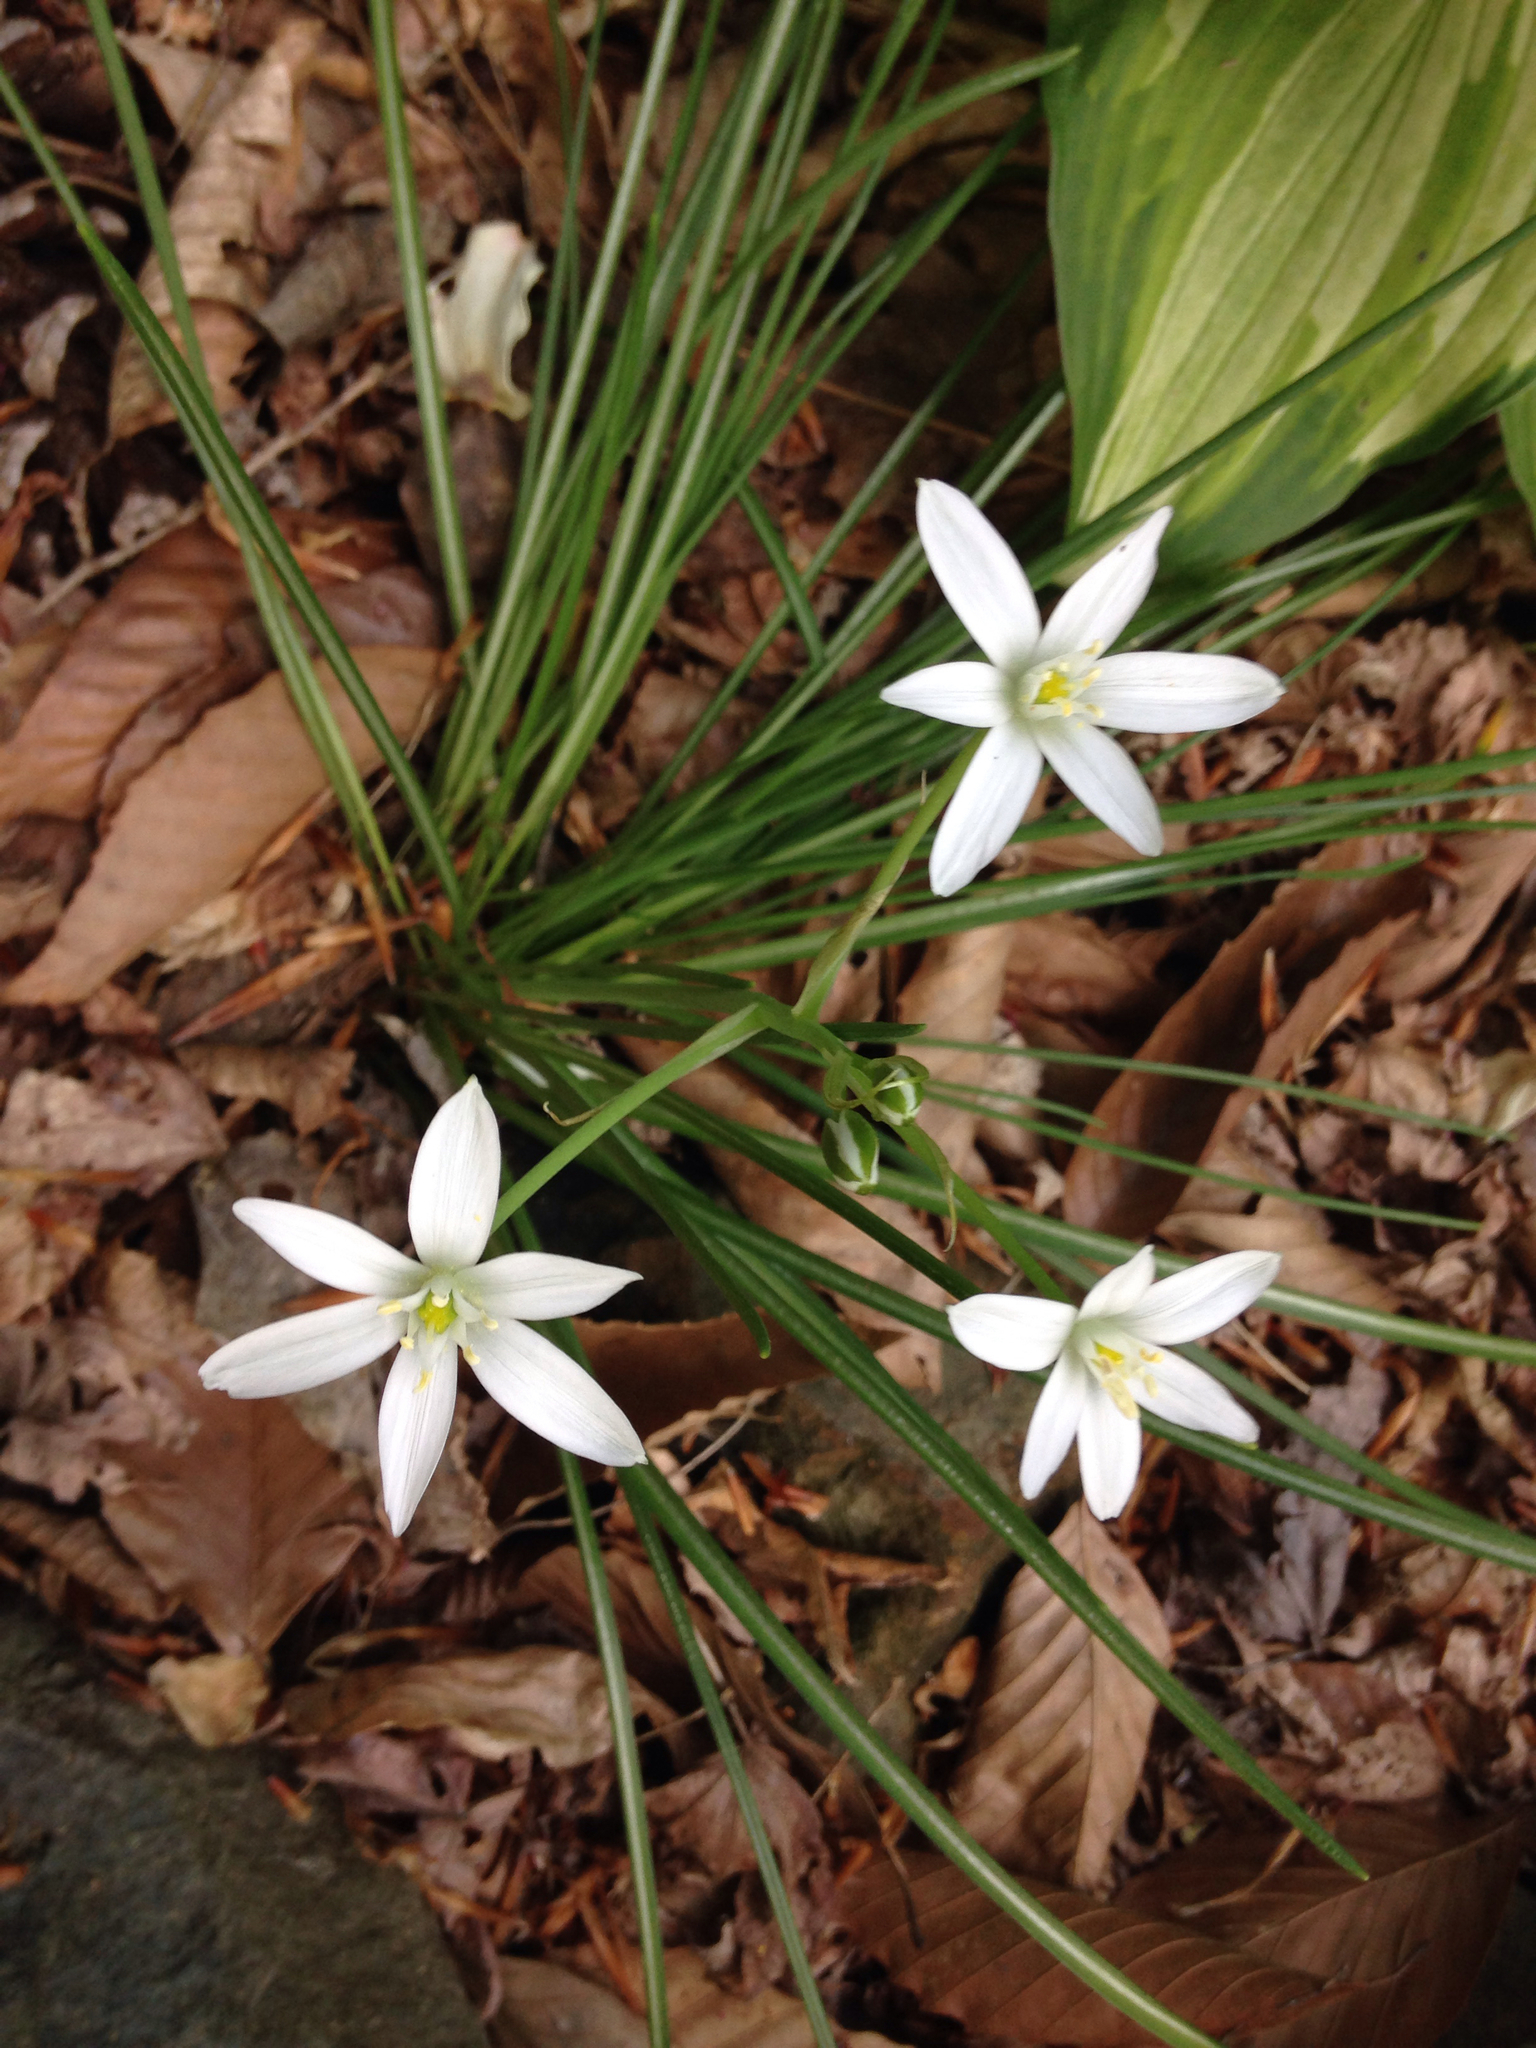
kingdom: Plantae
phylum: Tracheophyta
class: Liliopsida
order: Asparagales
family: Asparagaceae
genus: Ornithogalum
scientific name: Ornithogalum umbellatum
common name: Garden star-of-bethlehem
